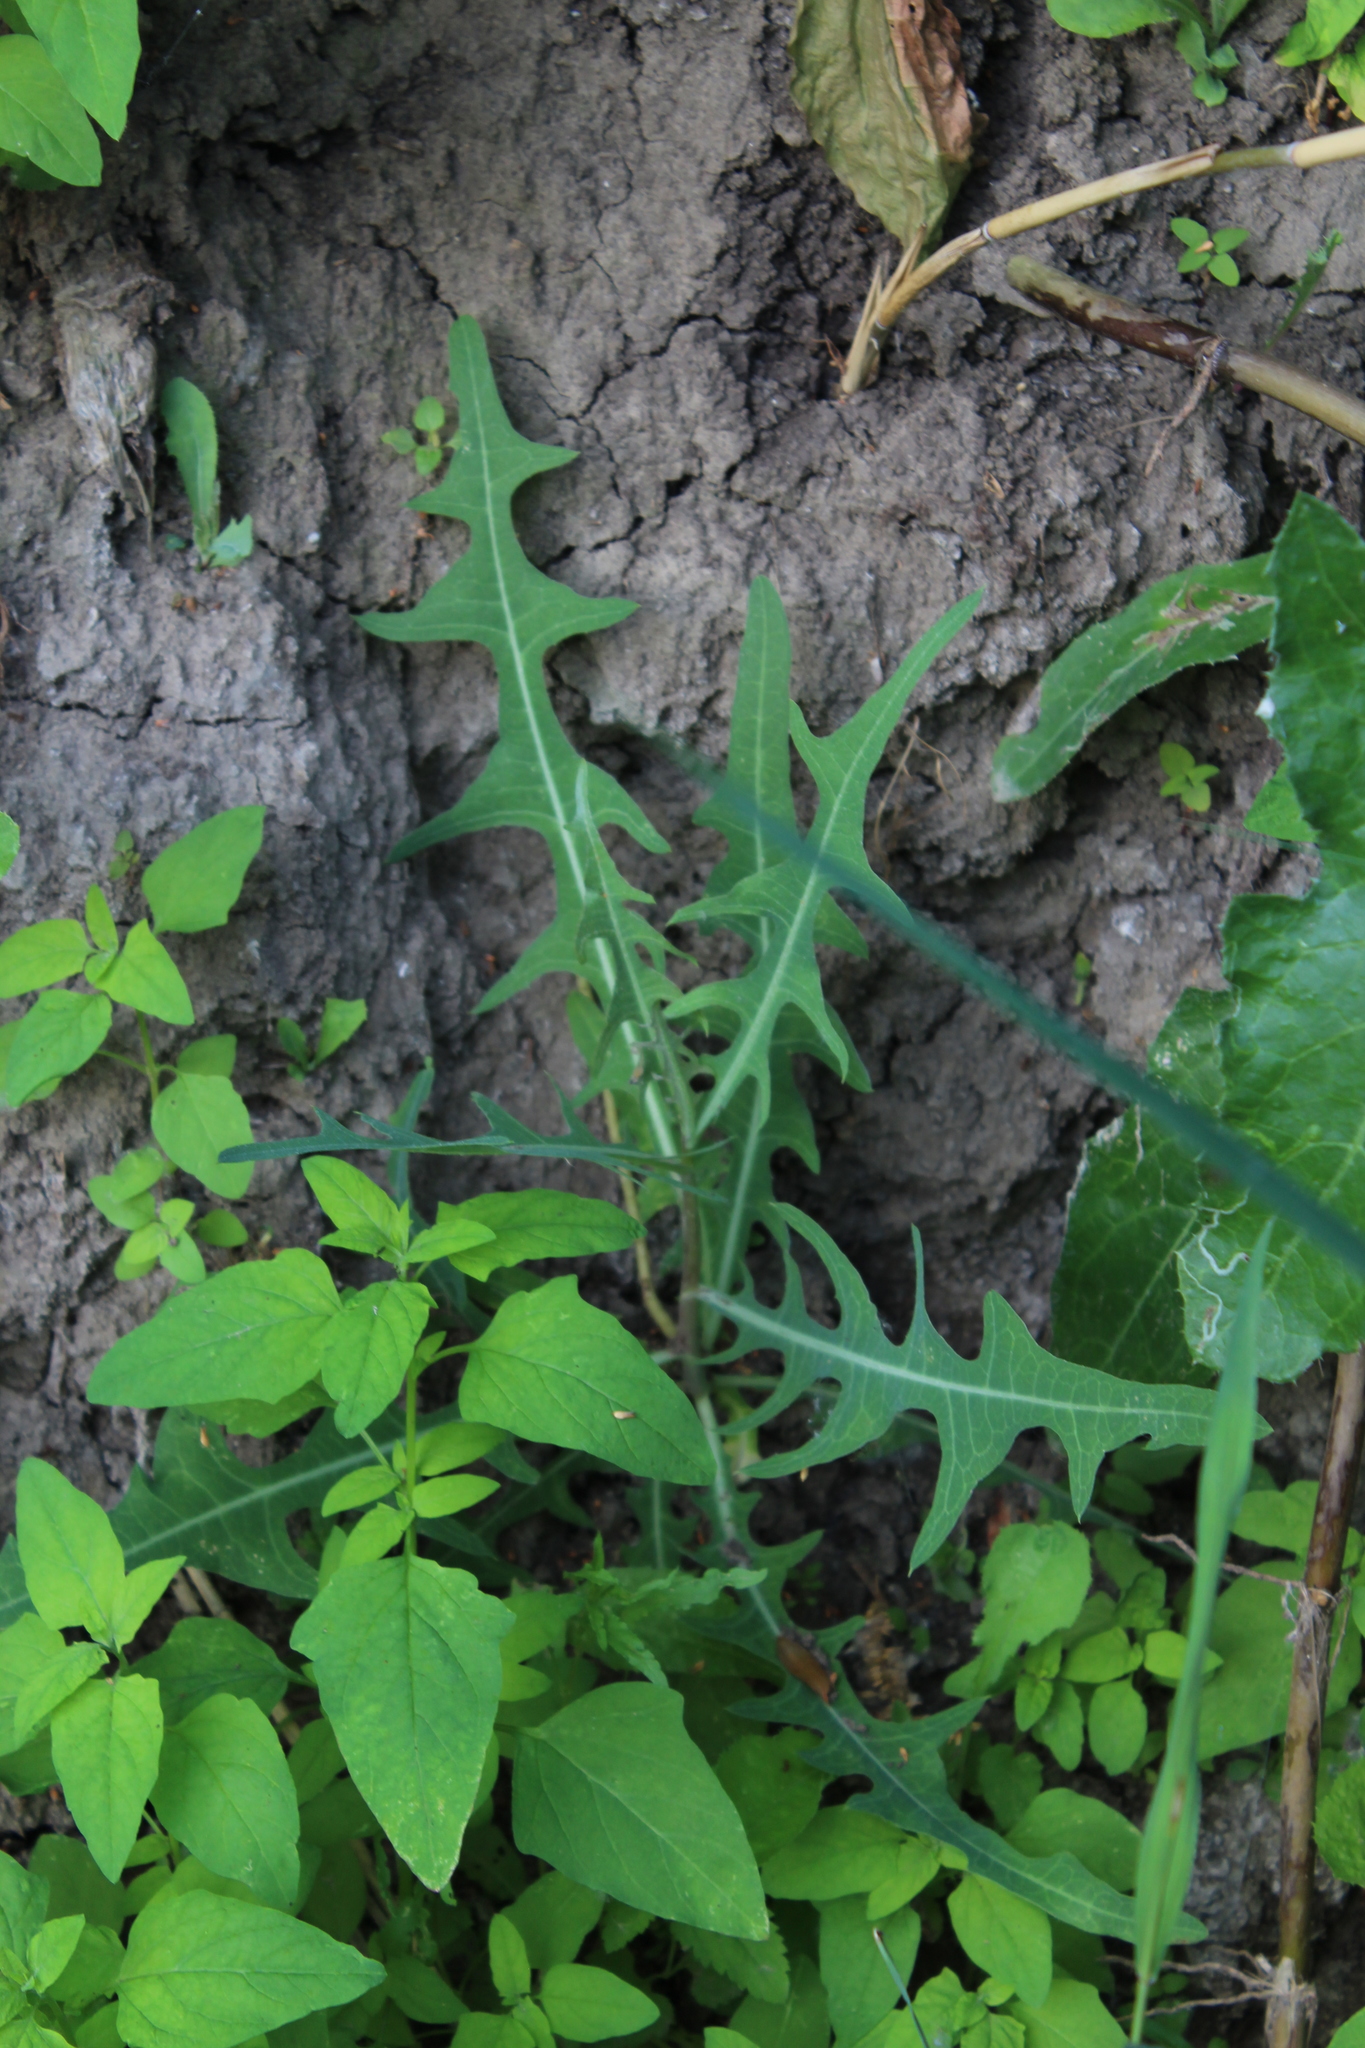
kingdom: Plantae
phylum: Tracheophyta
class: Magnoliopsida
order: Asterales
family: Asteraceae
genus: Lactuca
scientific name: Lactuca tatarica
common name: Blue lettuce
